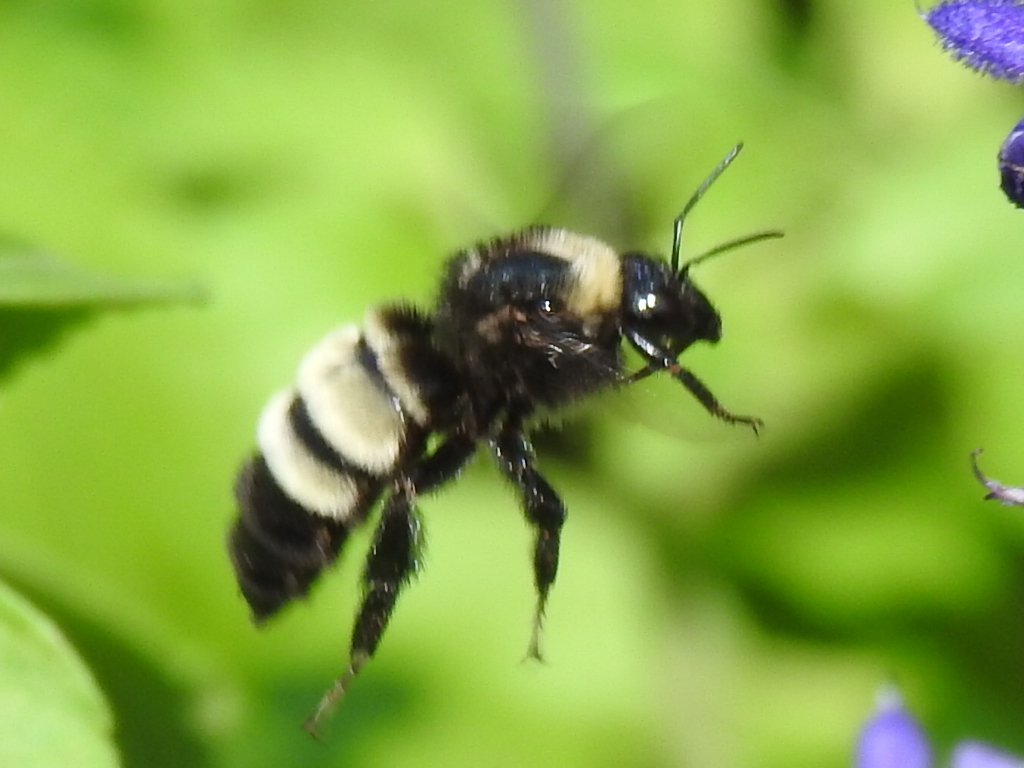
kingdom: Animalia
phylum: Arthropoda
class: Insecta
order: Hymenoptera
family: Apidae
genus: Bombus
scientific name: Bombus pensylvanicus
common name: Bumble bee
